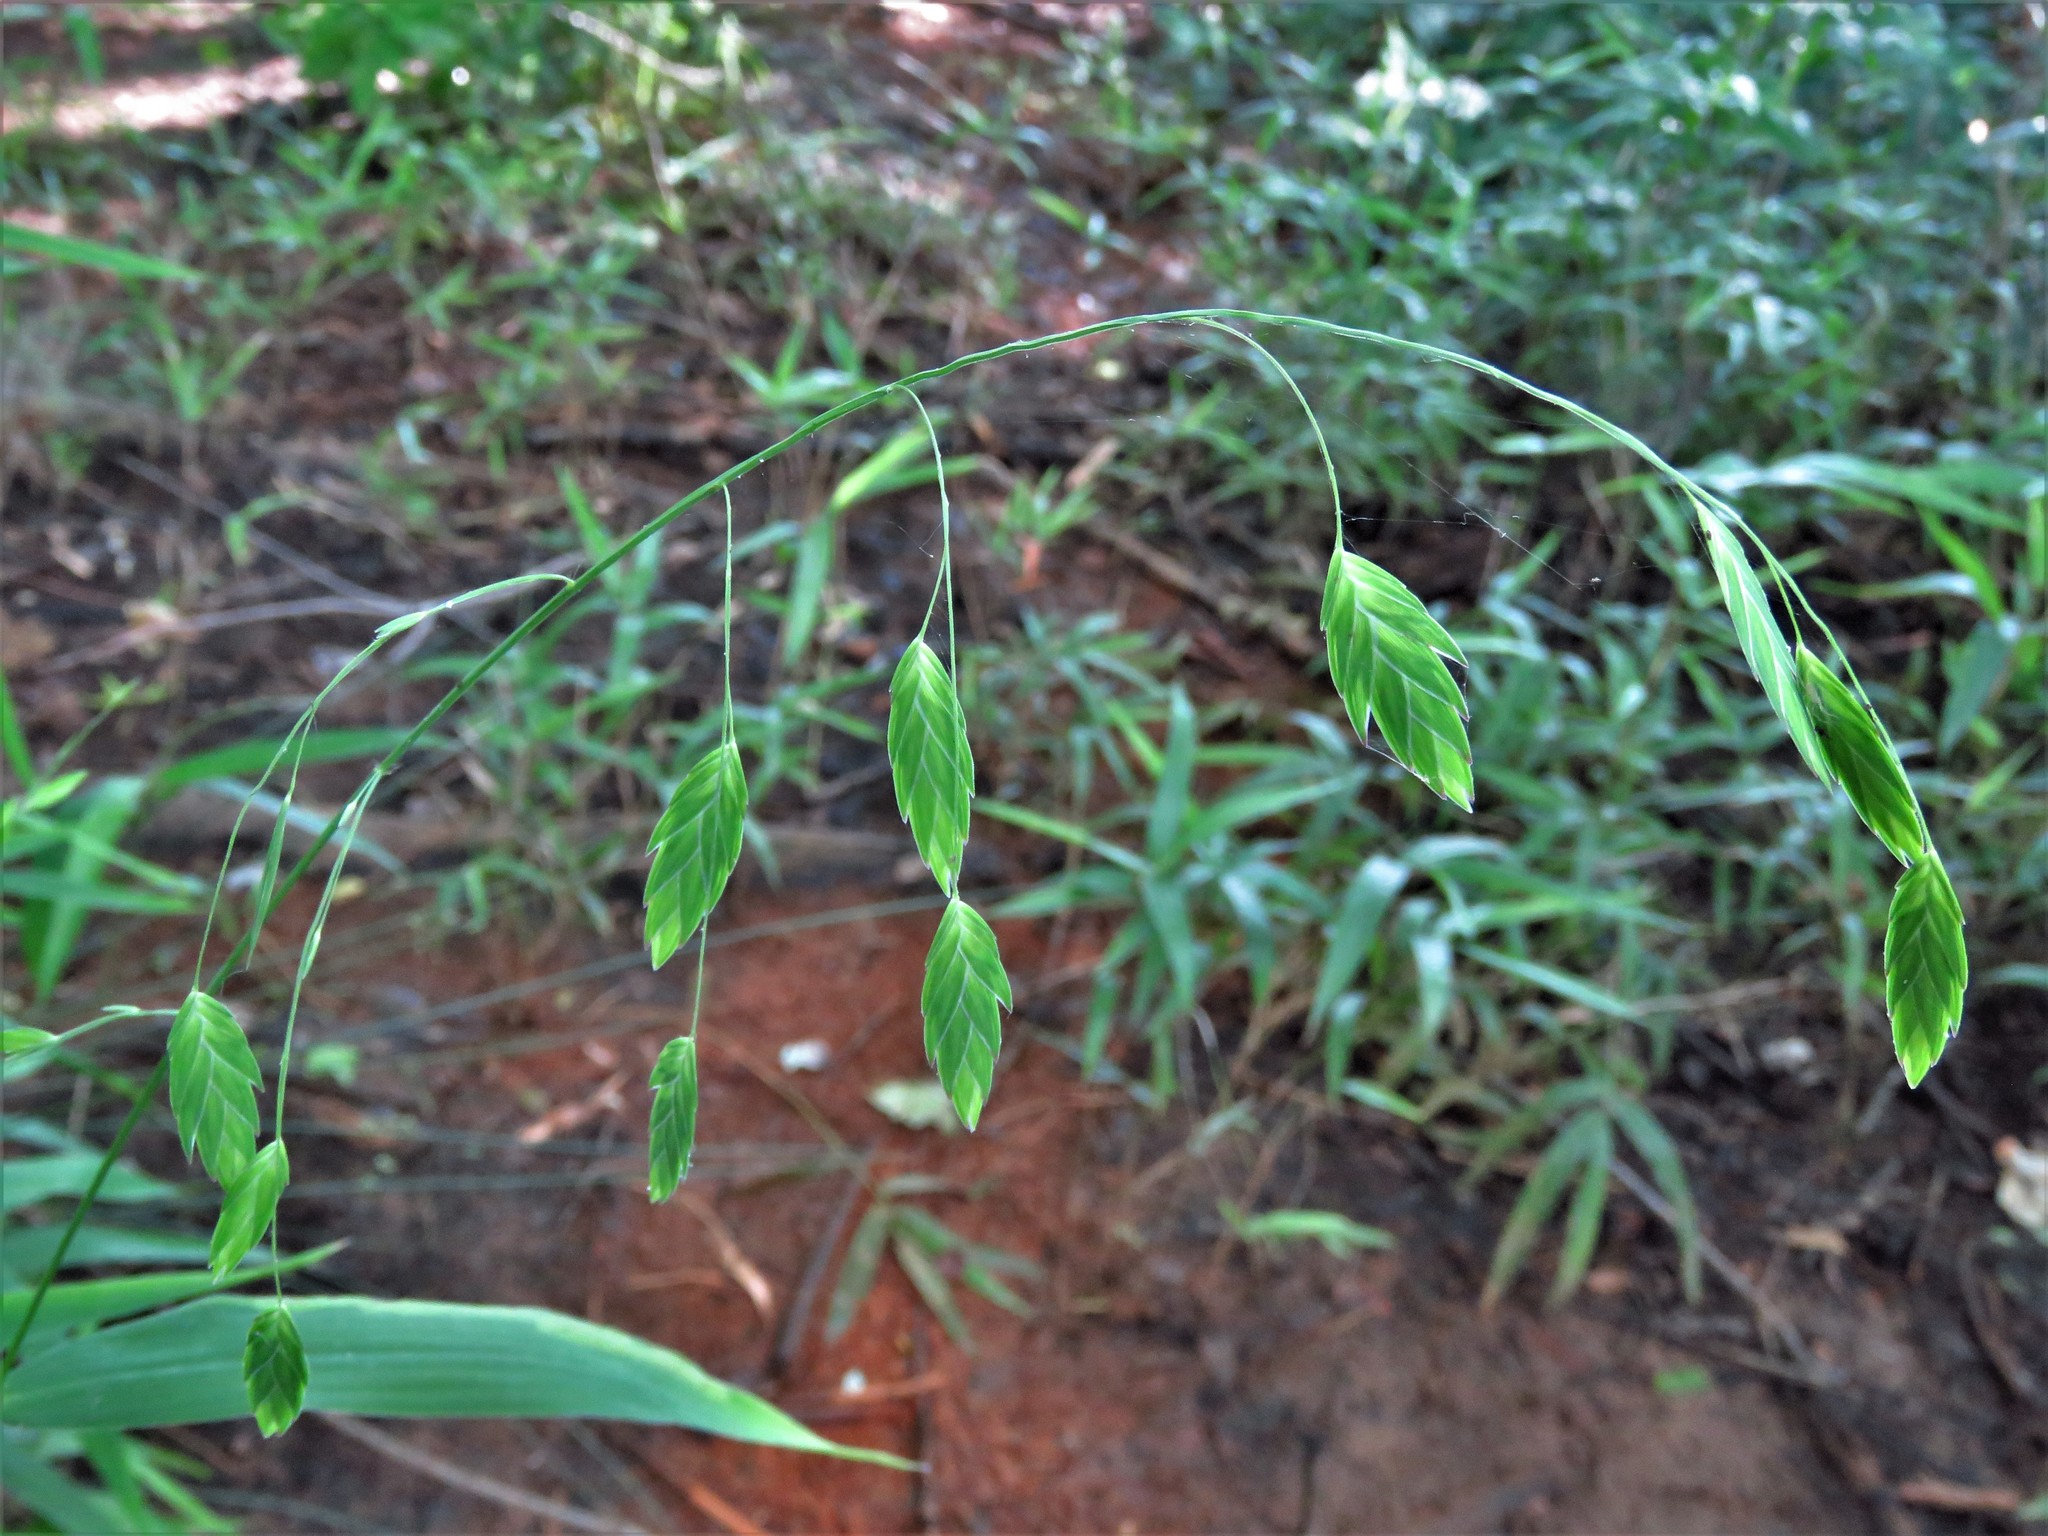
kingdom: Plantae
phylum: Tracheophyta
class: Liliopsida
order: Poales
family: Poaceae
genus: Chasmanthium
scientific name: Chasmanthium latifolium
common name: Broad-leaved chasmanthium
